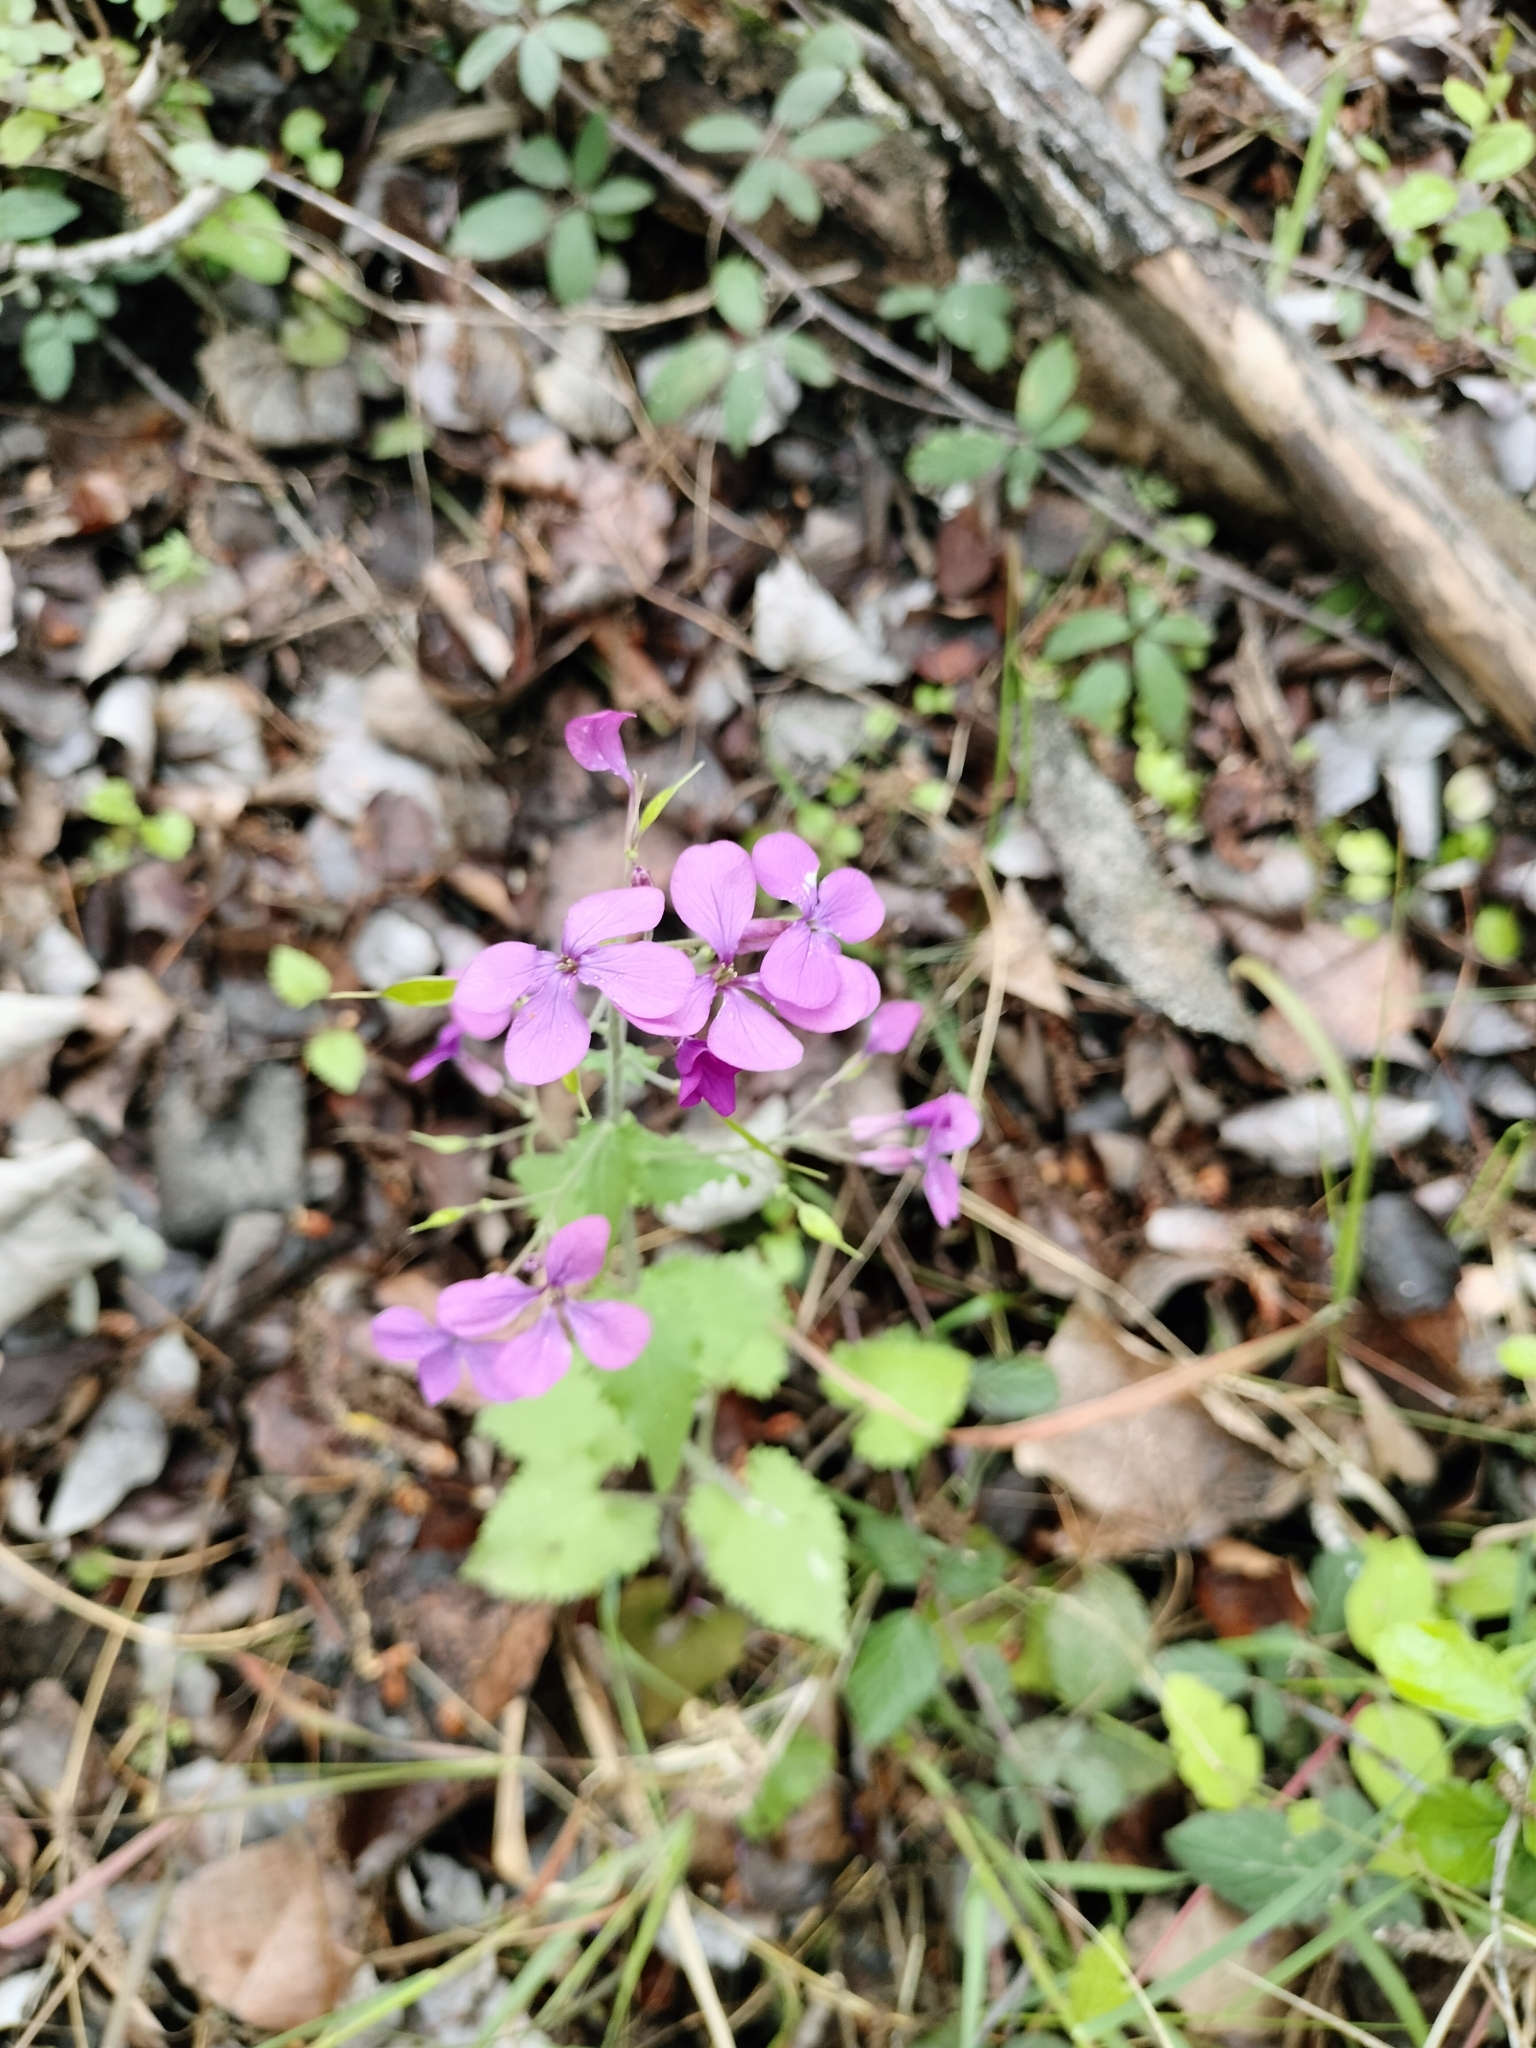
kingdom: Plantae
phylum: Tracheophyta
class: Magnoliopsida
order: Brassicales
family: Brassicaceae
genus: Lunaria
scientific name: Lunaria annua
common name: Honesty
